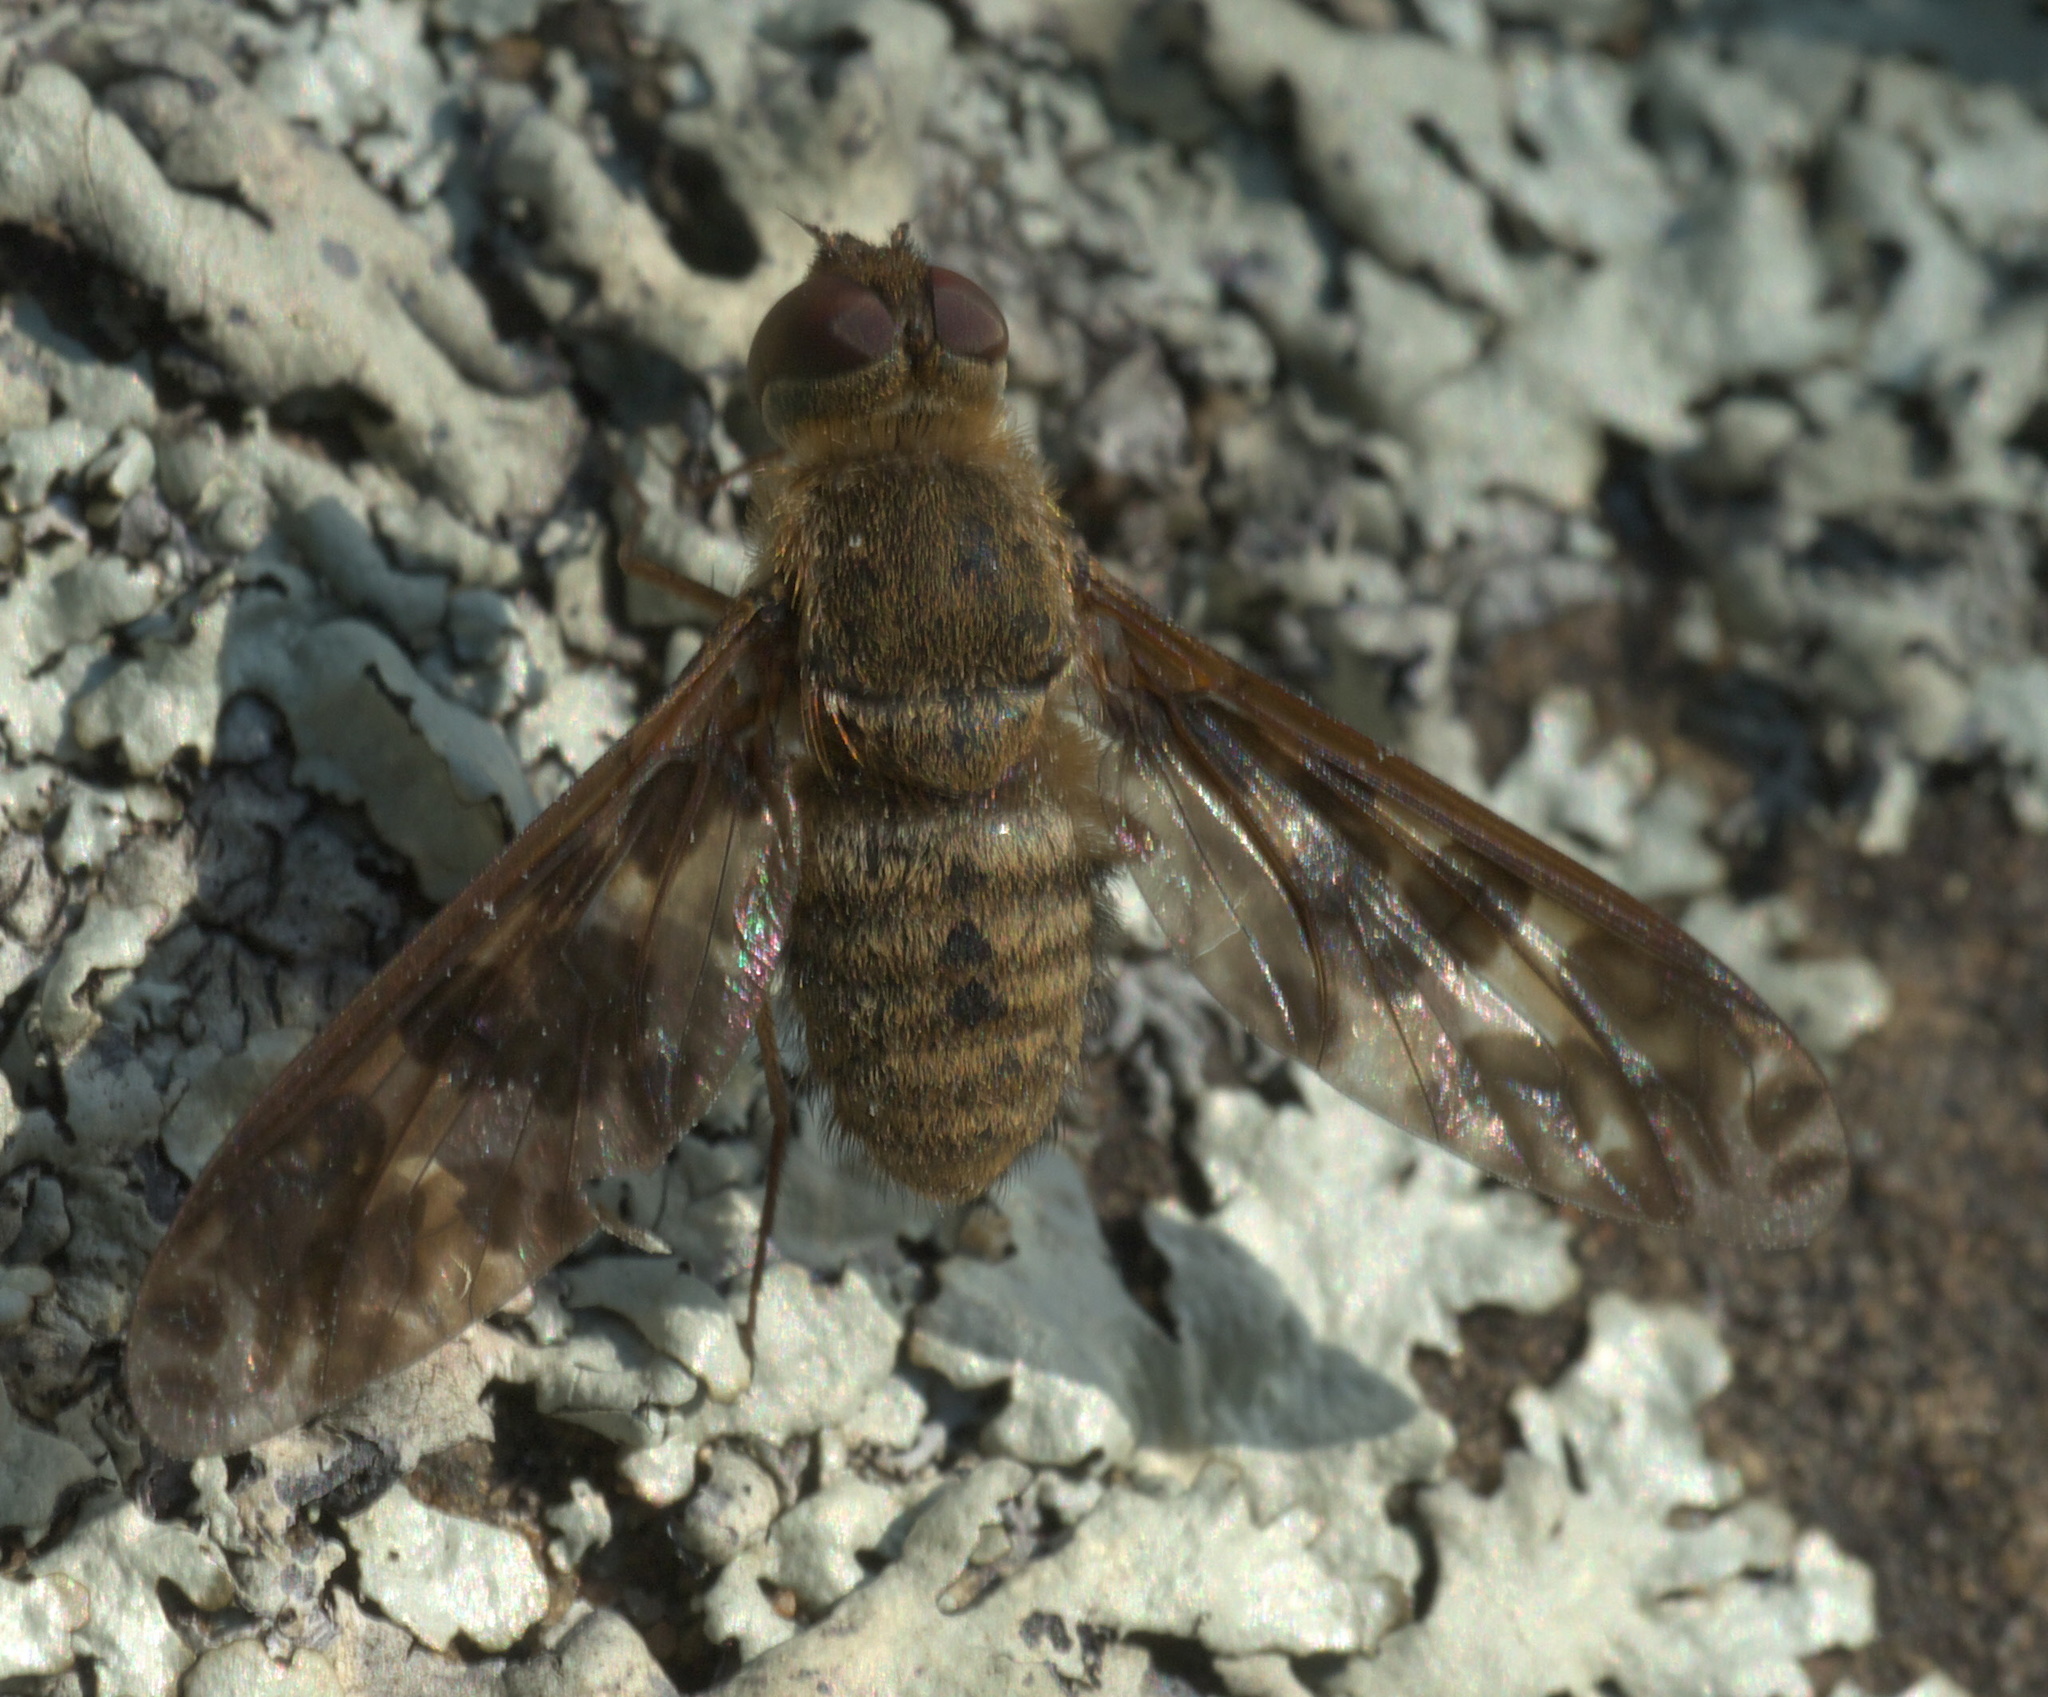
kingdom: Animalia
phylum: Arthropoda
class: Insecta
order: Diptera
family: Bombyliidae
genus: Dipalta
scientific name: Dipalta serpentina
